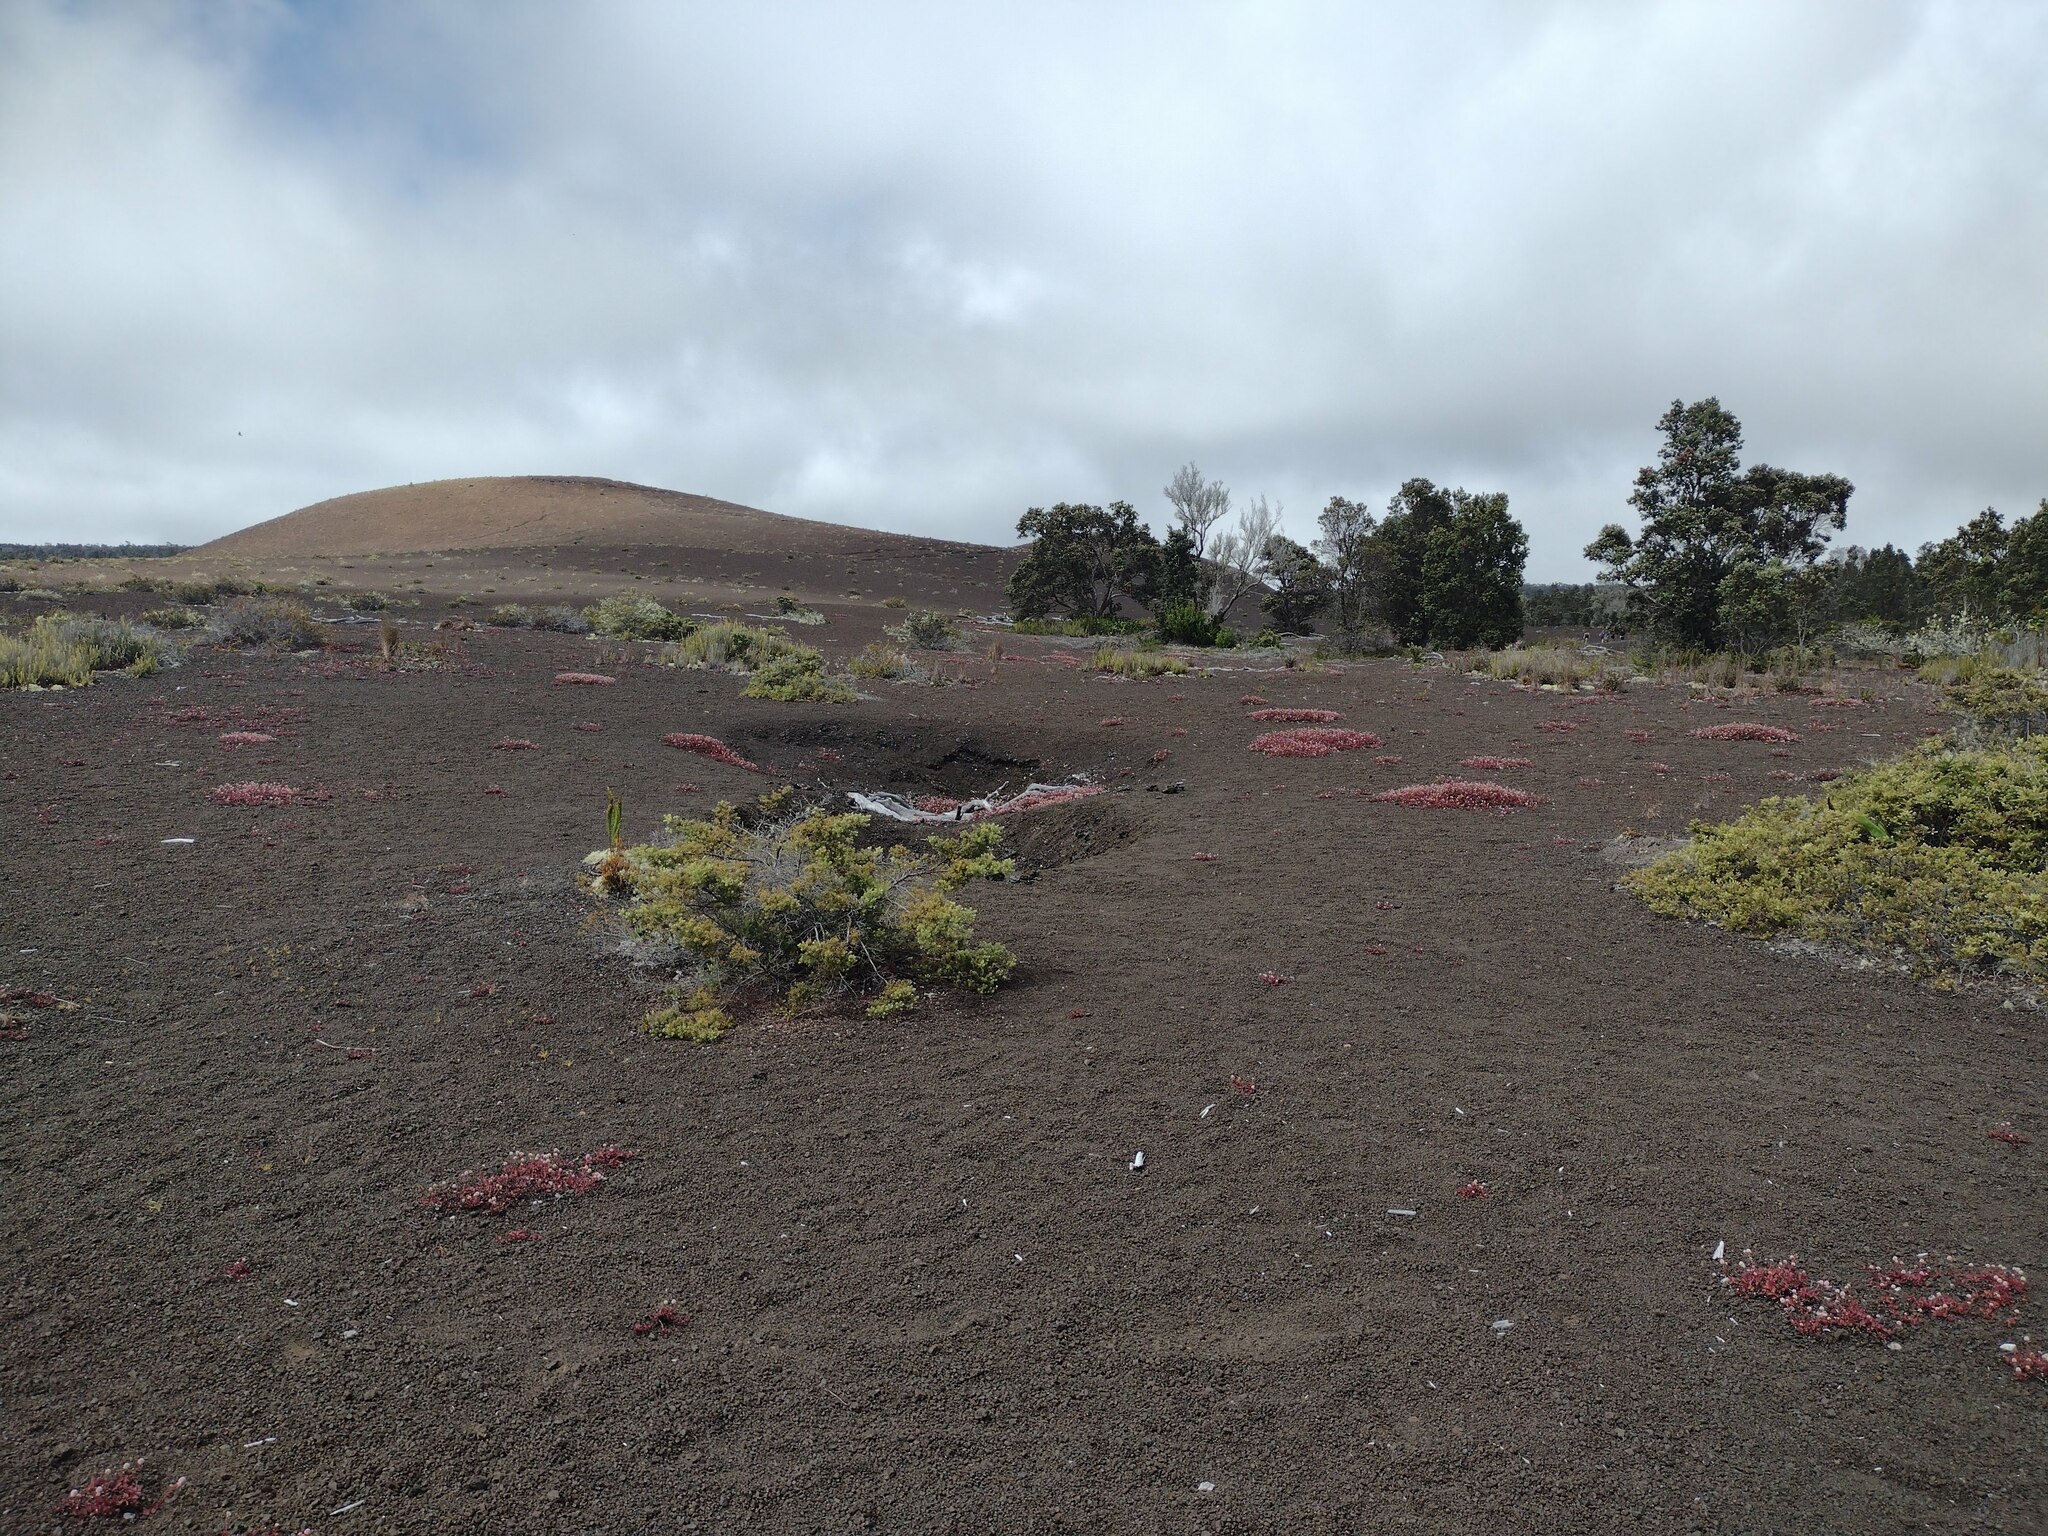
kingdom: Plantae
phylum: Tracheophyta
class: Magnoliopsida
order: Caryophyllales
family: Polygonaceae
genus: Persicaria
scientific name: Persicaria capitata
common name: Pinkhead smartweed
